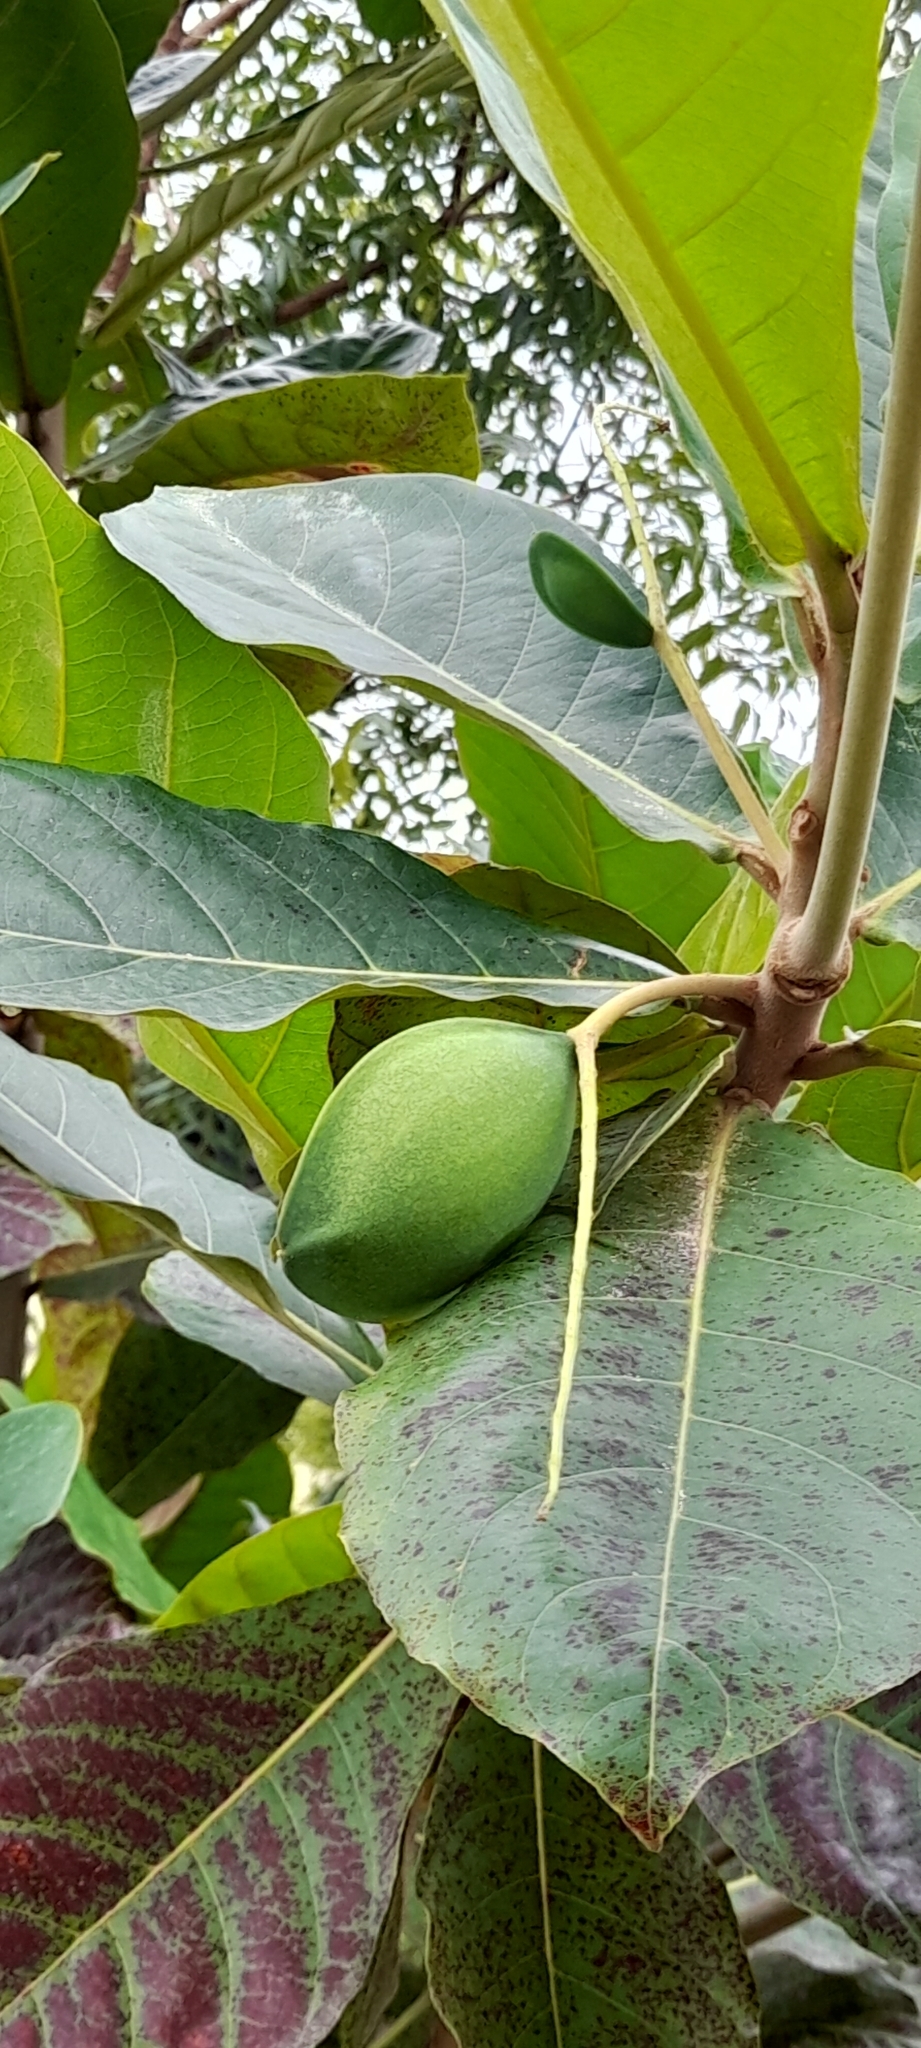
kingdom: Plantae
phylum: Tracheophyta
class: Magnoliopsida
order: Myrtales
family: Combretaceae
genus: Terminalia
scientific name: Terminalia catappa
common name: Tropical almond
